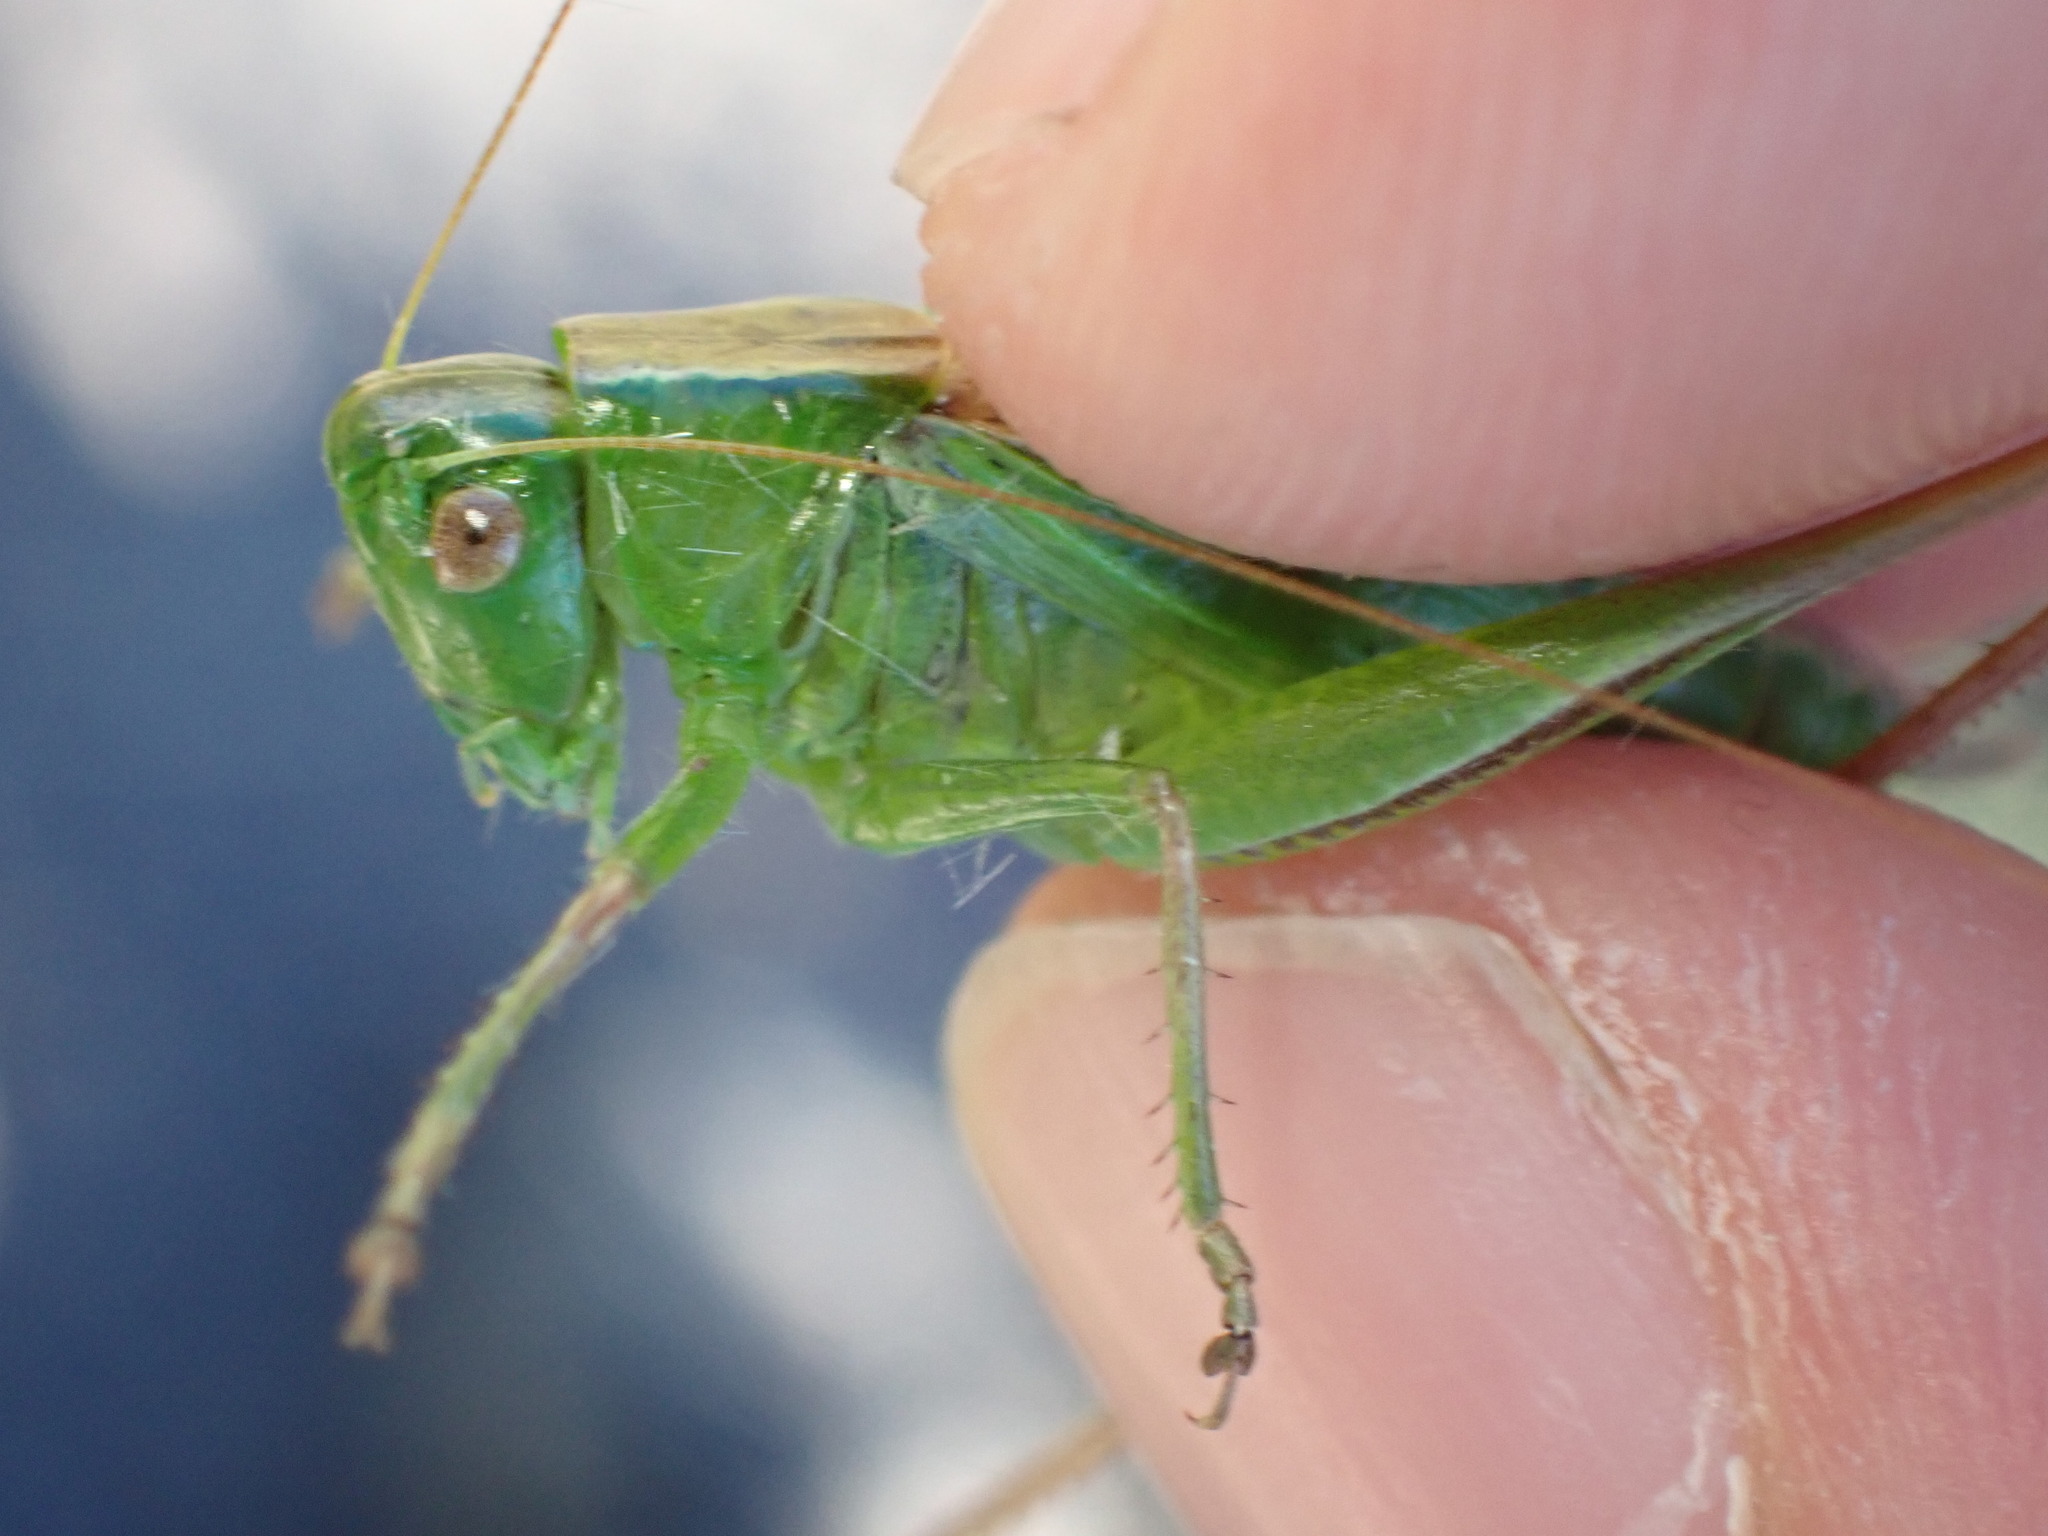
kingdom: Animalia
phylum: Arthropoda
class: Insecta
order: Orthoptera
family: Tettigoniidae
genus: Bicolorana
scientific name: Bicolorana bicolor
